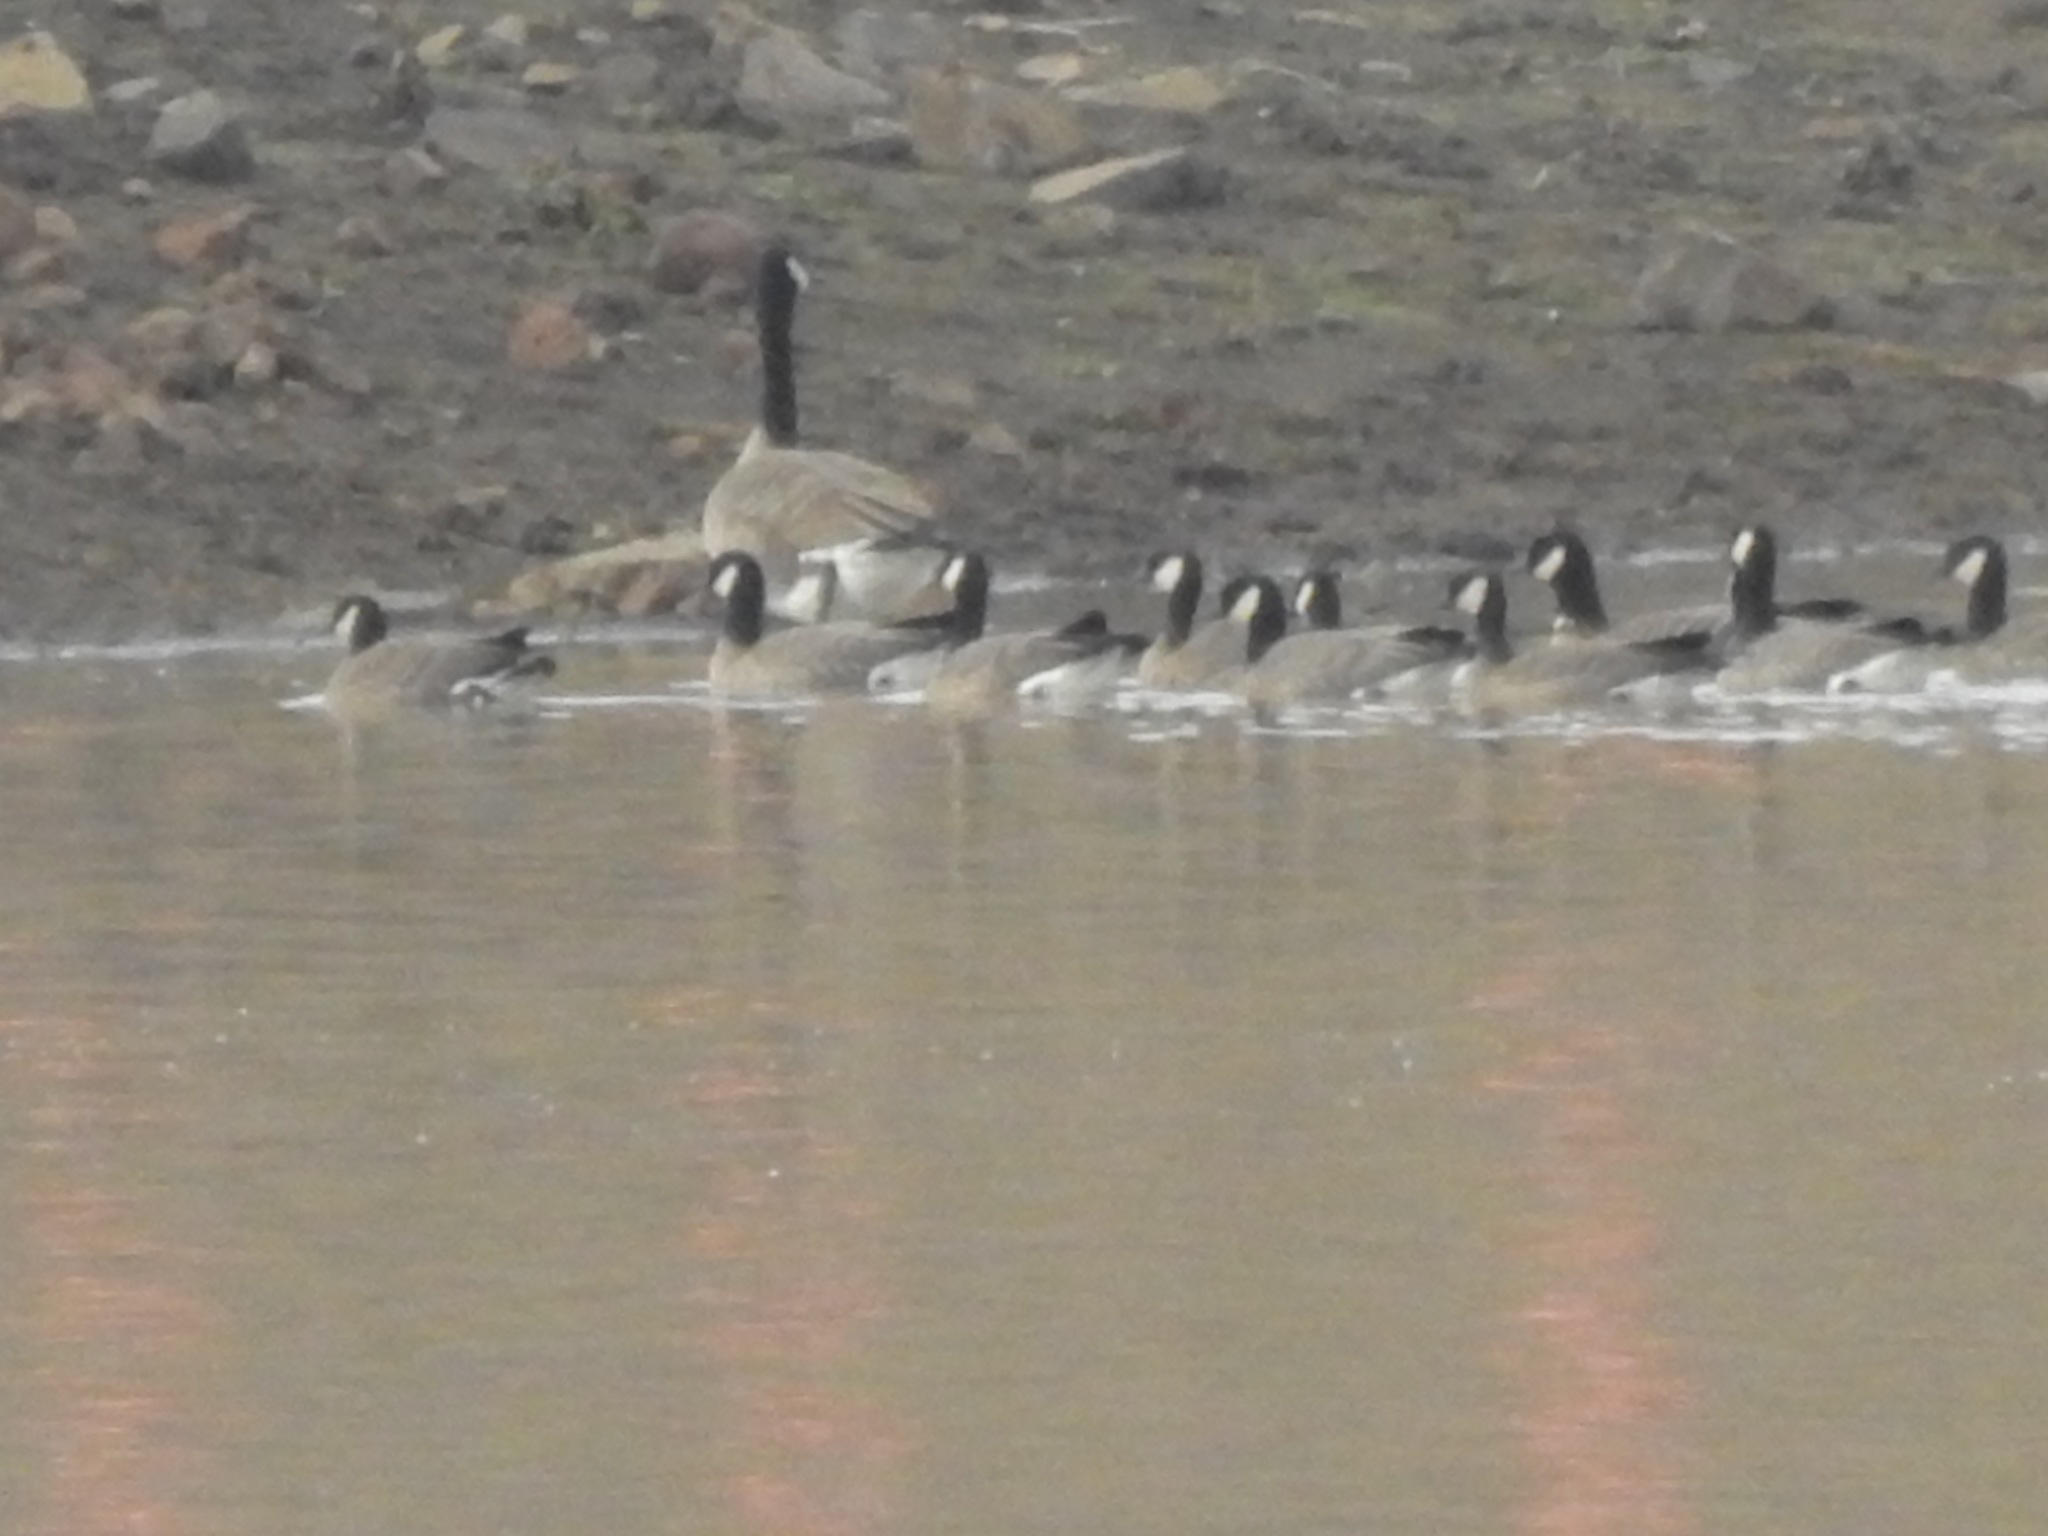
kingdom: Animalia
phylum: Chordata
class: Aves
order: Anseriformes
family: Anatidae
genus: Branta
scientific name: Branta canadensis
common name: Canada goose
